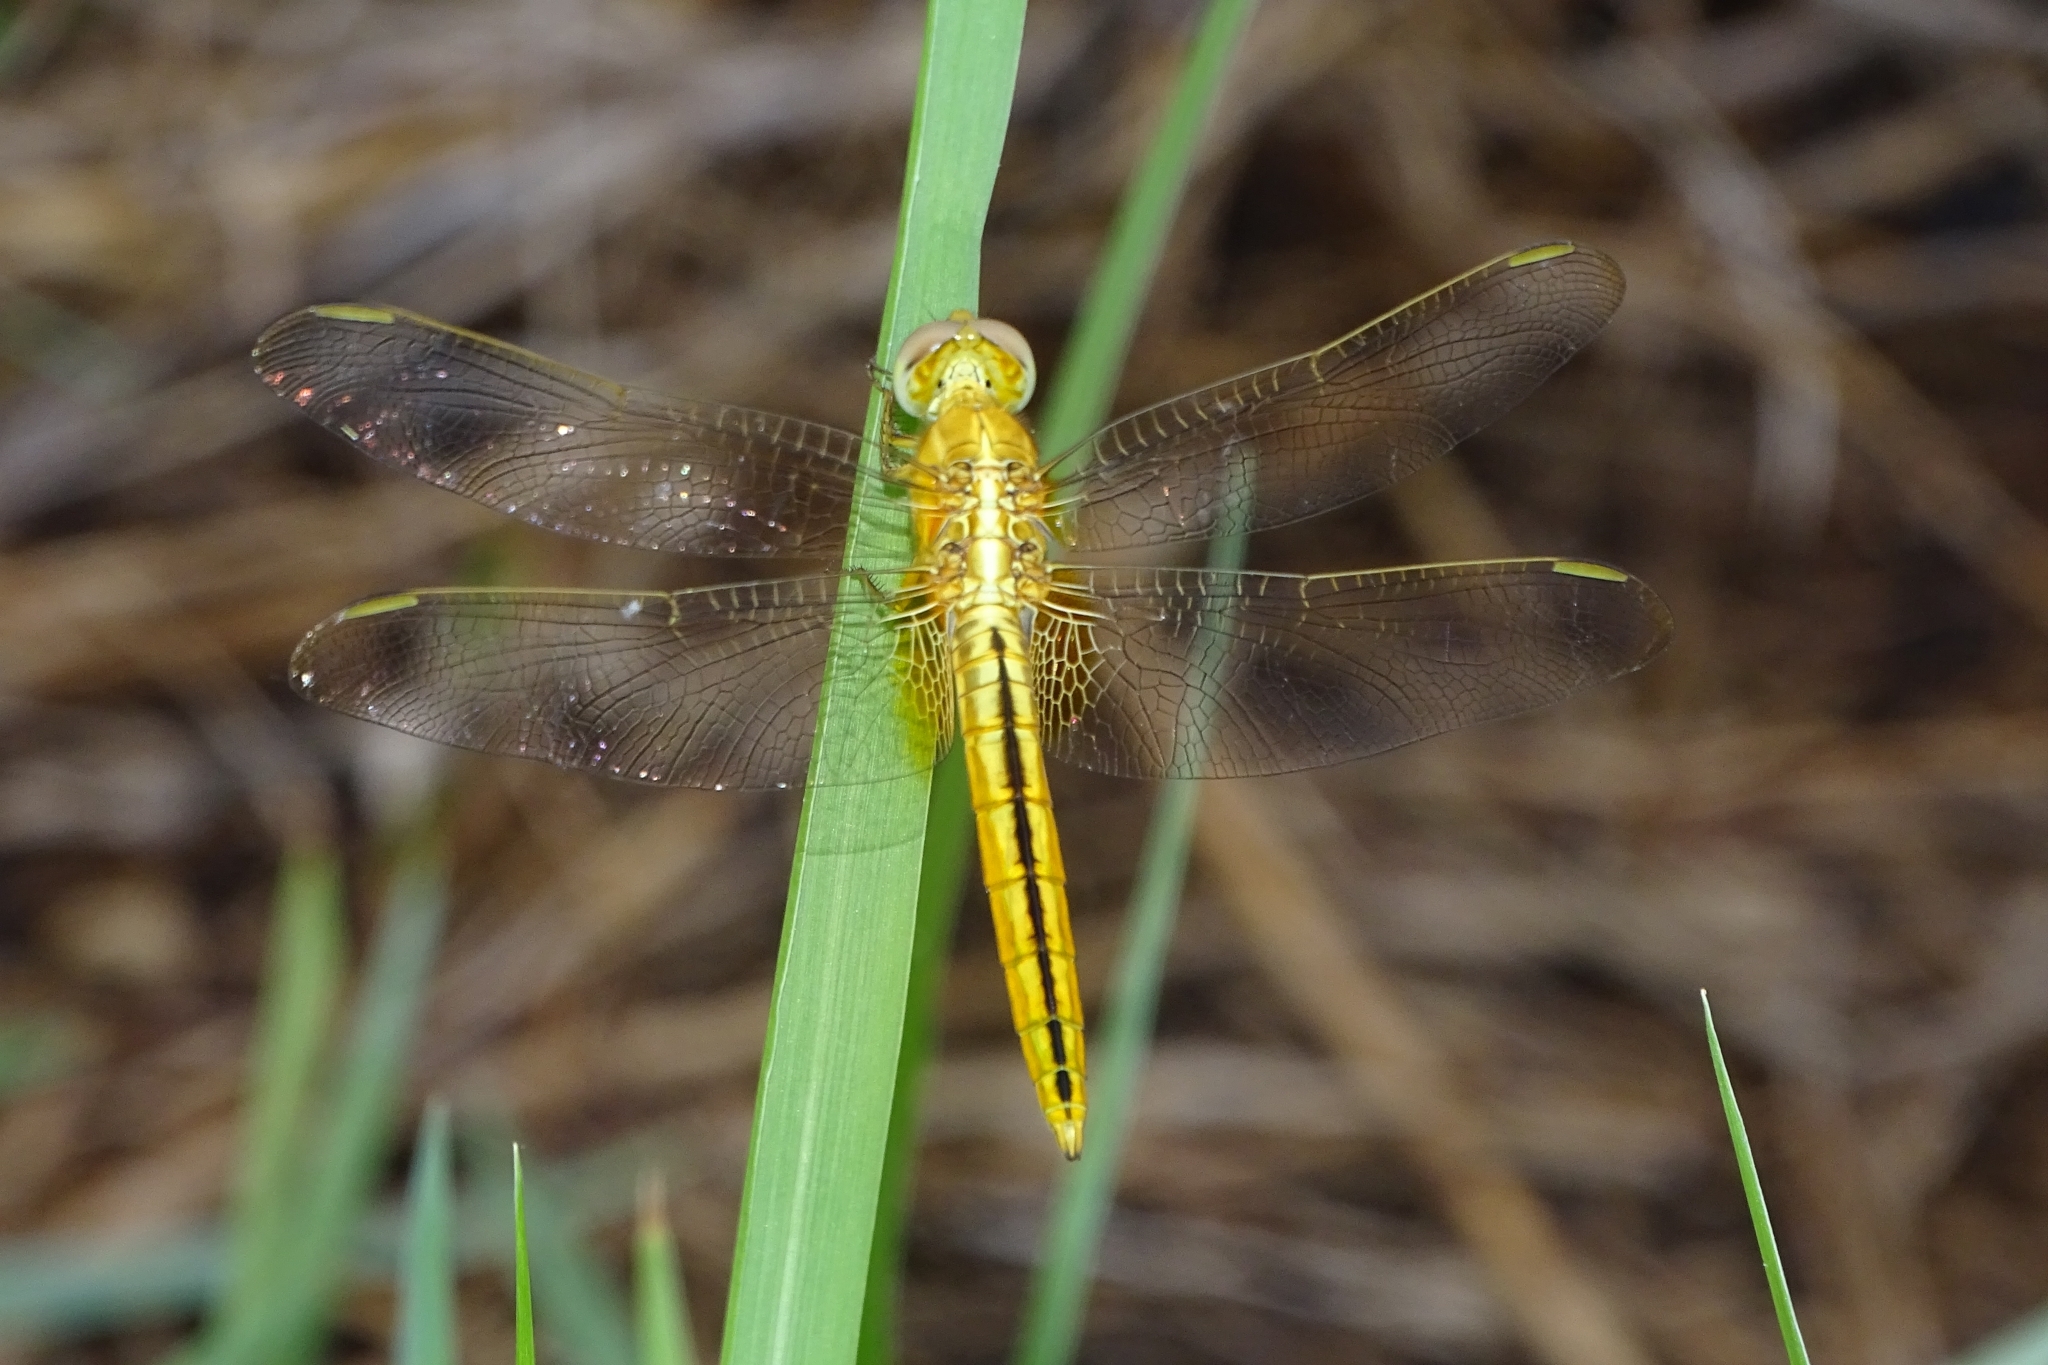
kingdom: Animalia
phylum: Arthropoda
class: Insecta
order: Odonata
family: Libellulidae
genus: Crocothemis
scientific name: Crocothemis servilia
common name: Scarlet skimmer
